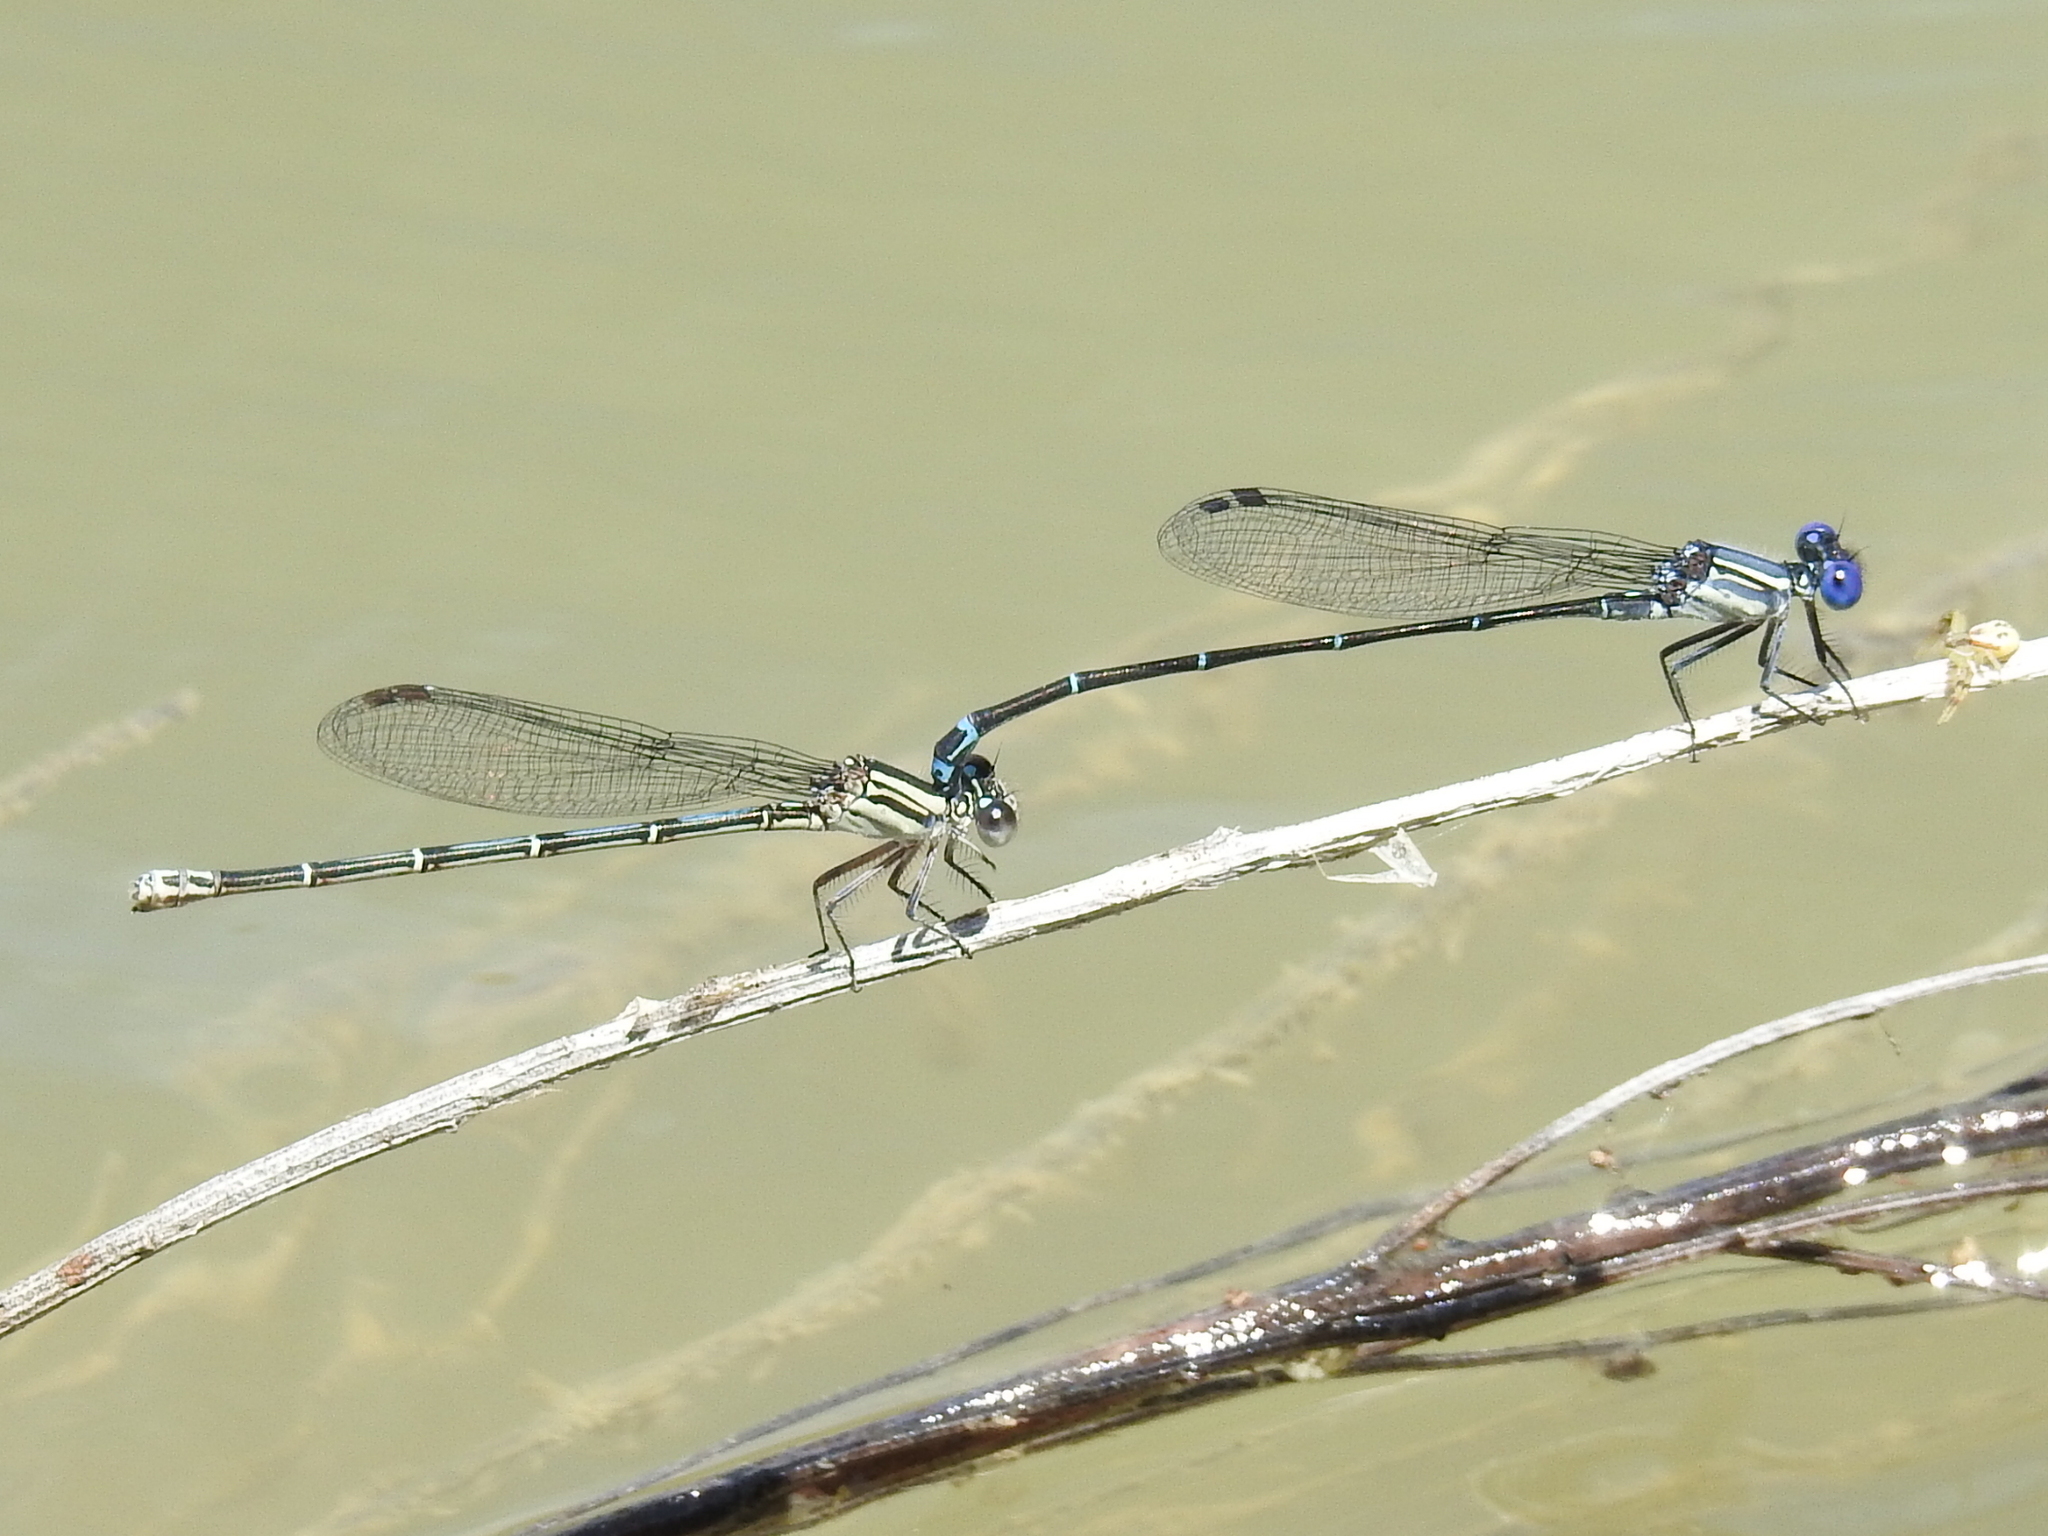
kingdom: Animalia
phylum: Arthropoda
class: Insecta
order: Odonata
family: Coenagrionidae
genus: Argia
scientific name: Argia translata
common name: Dusky dancer
